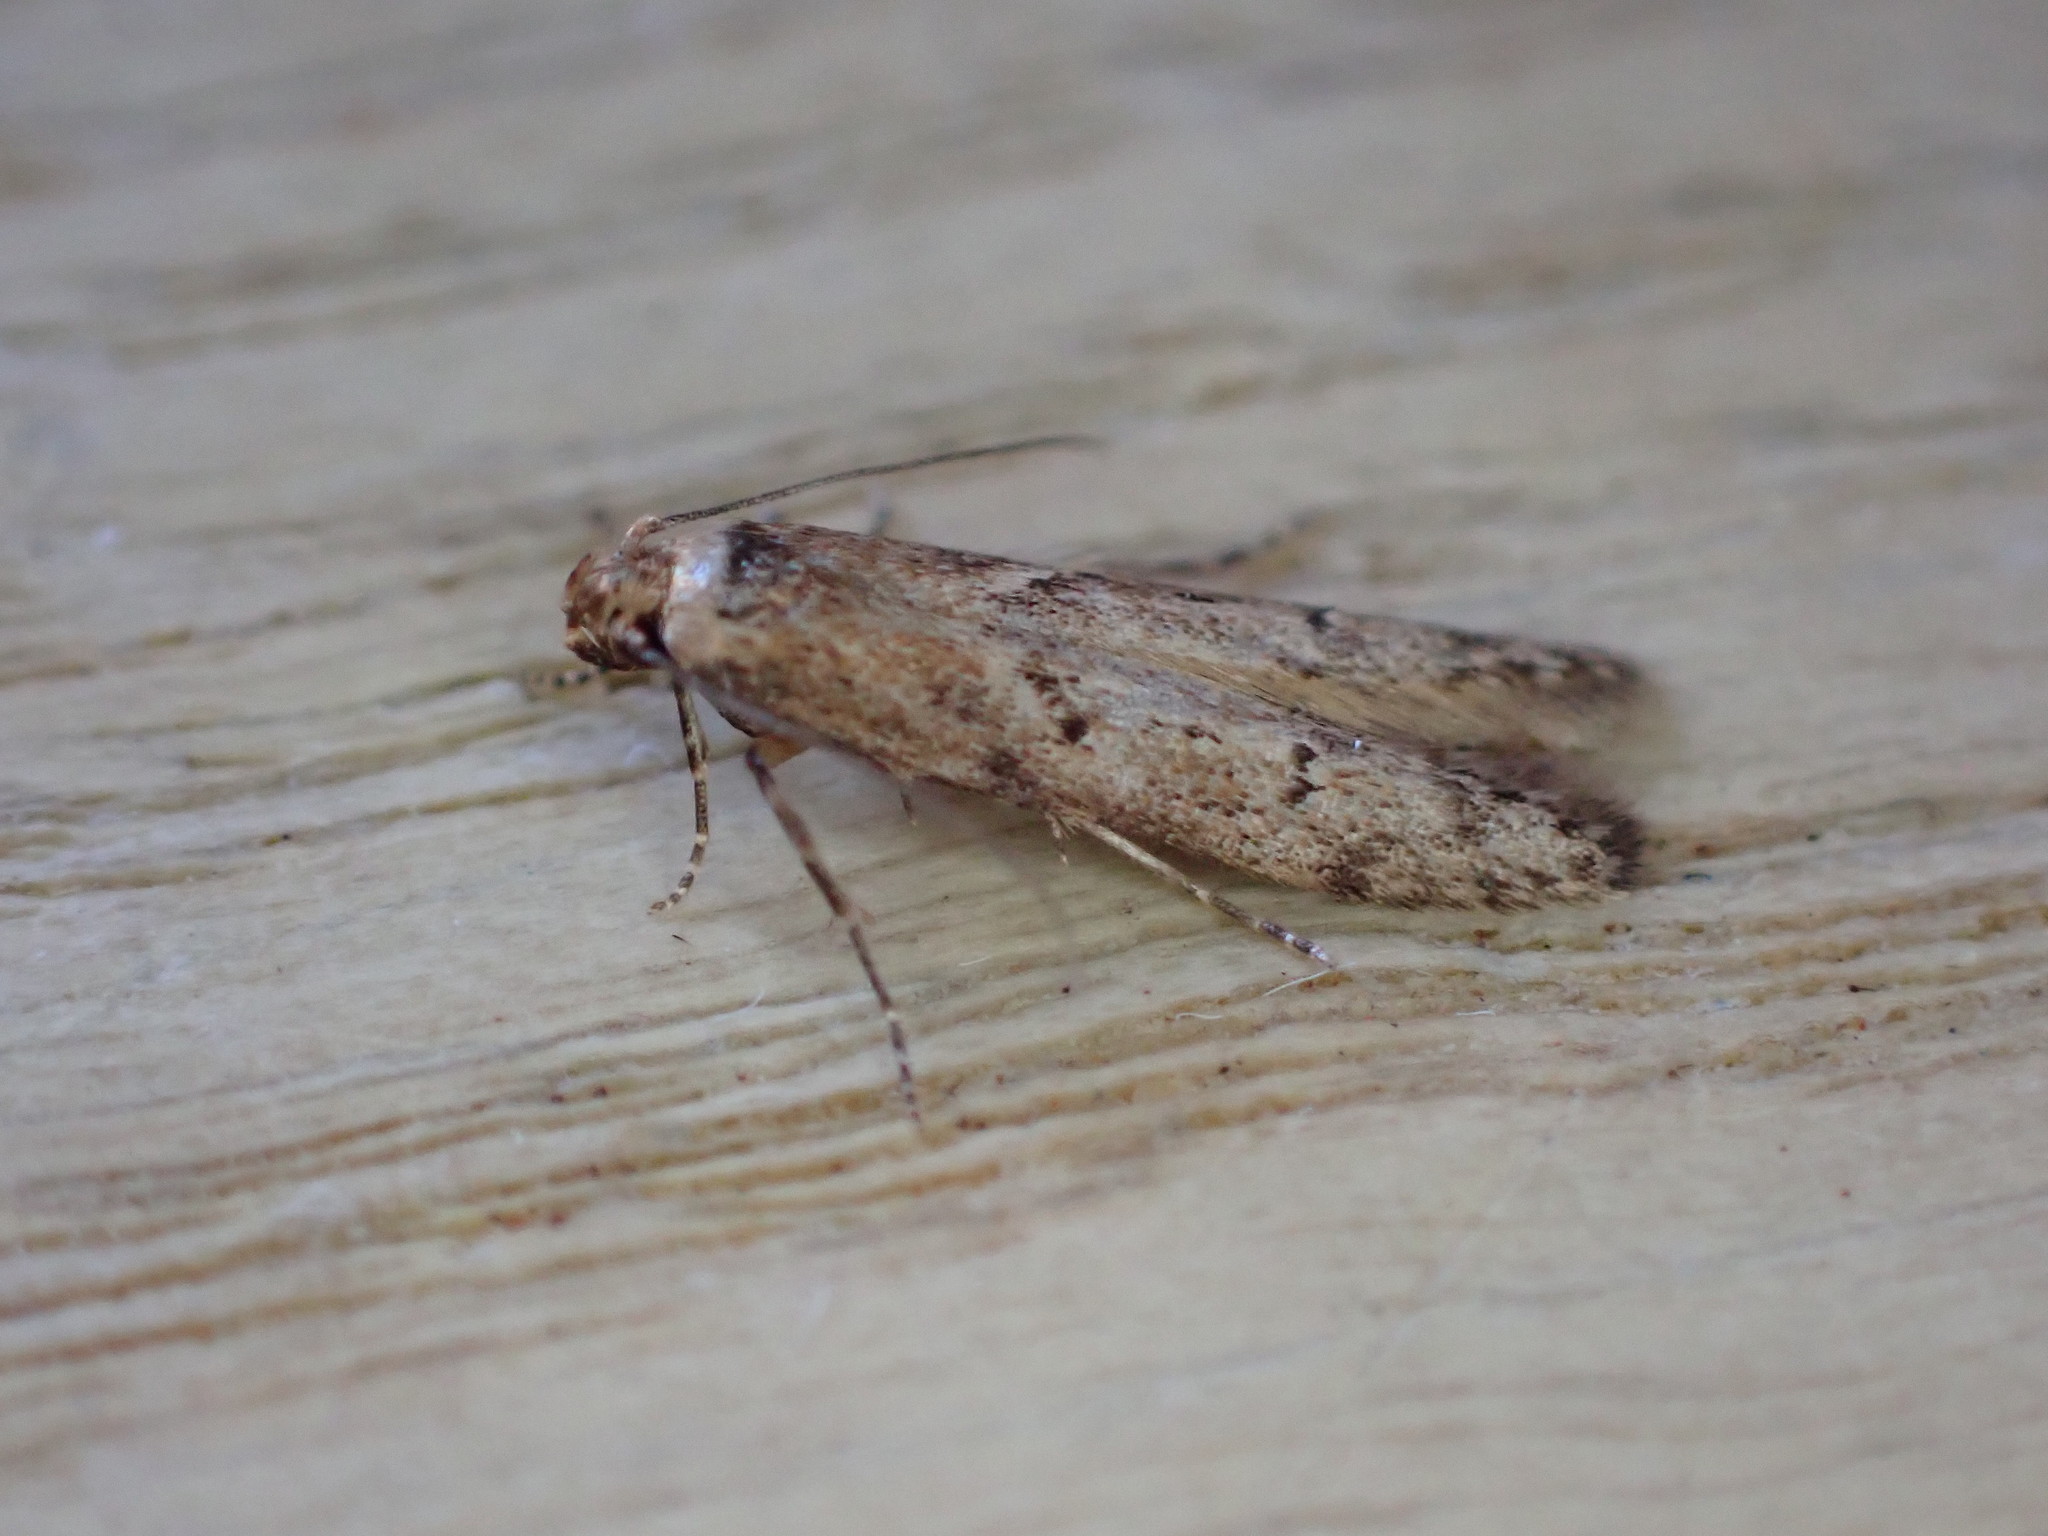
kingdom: Animalia
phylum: Arthropoda
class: Insecta
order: Lepidoptera
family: Blastobasidae
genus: Blastobasis
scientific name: Blastobasis adustella
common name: Dingy dowd
